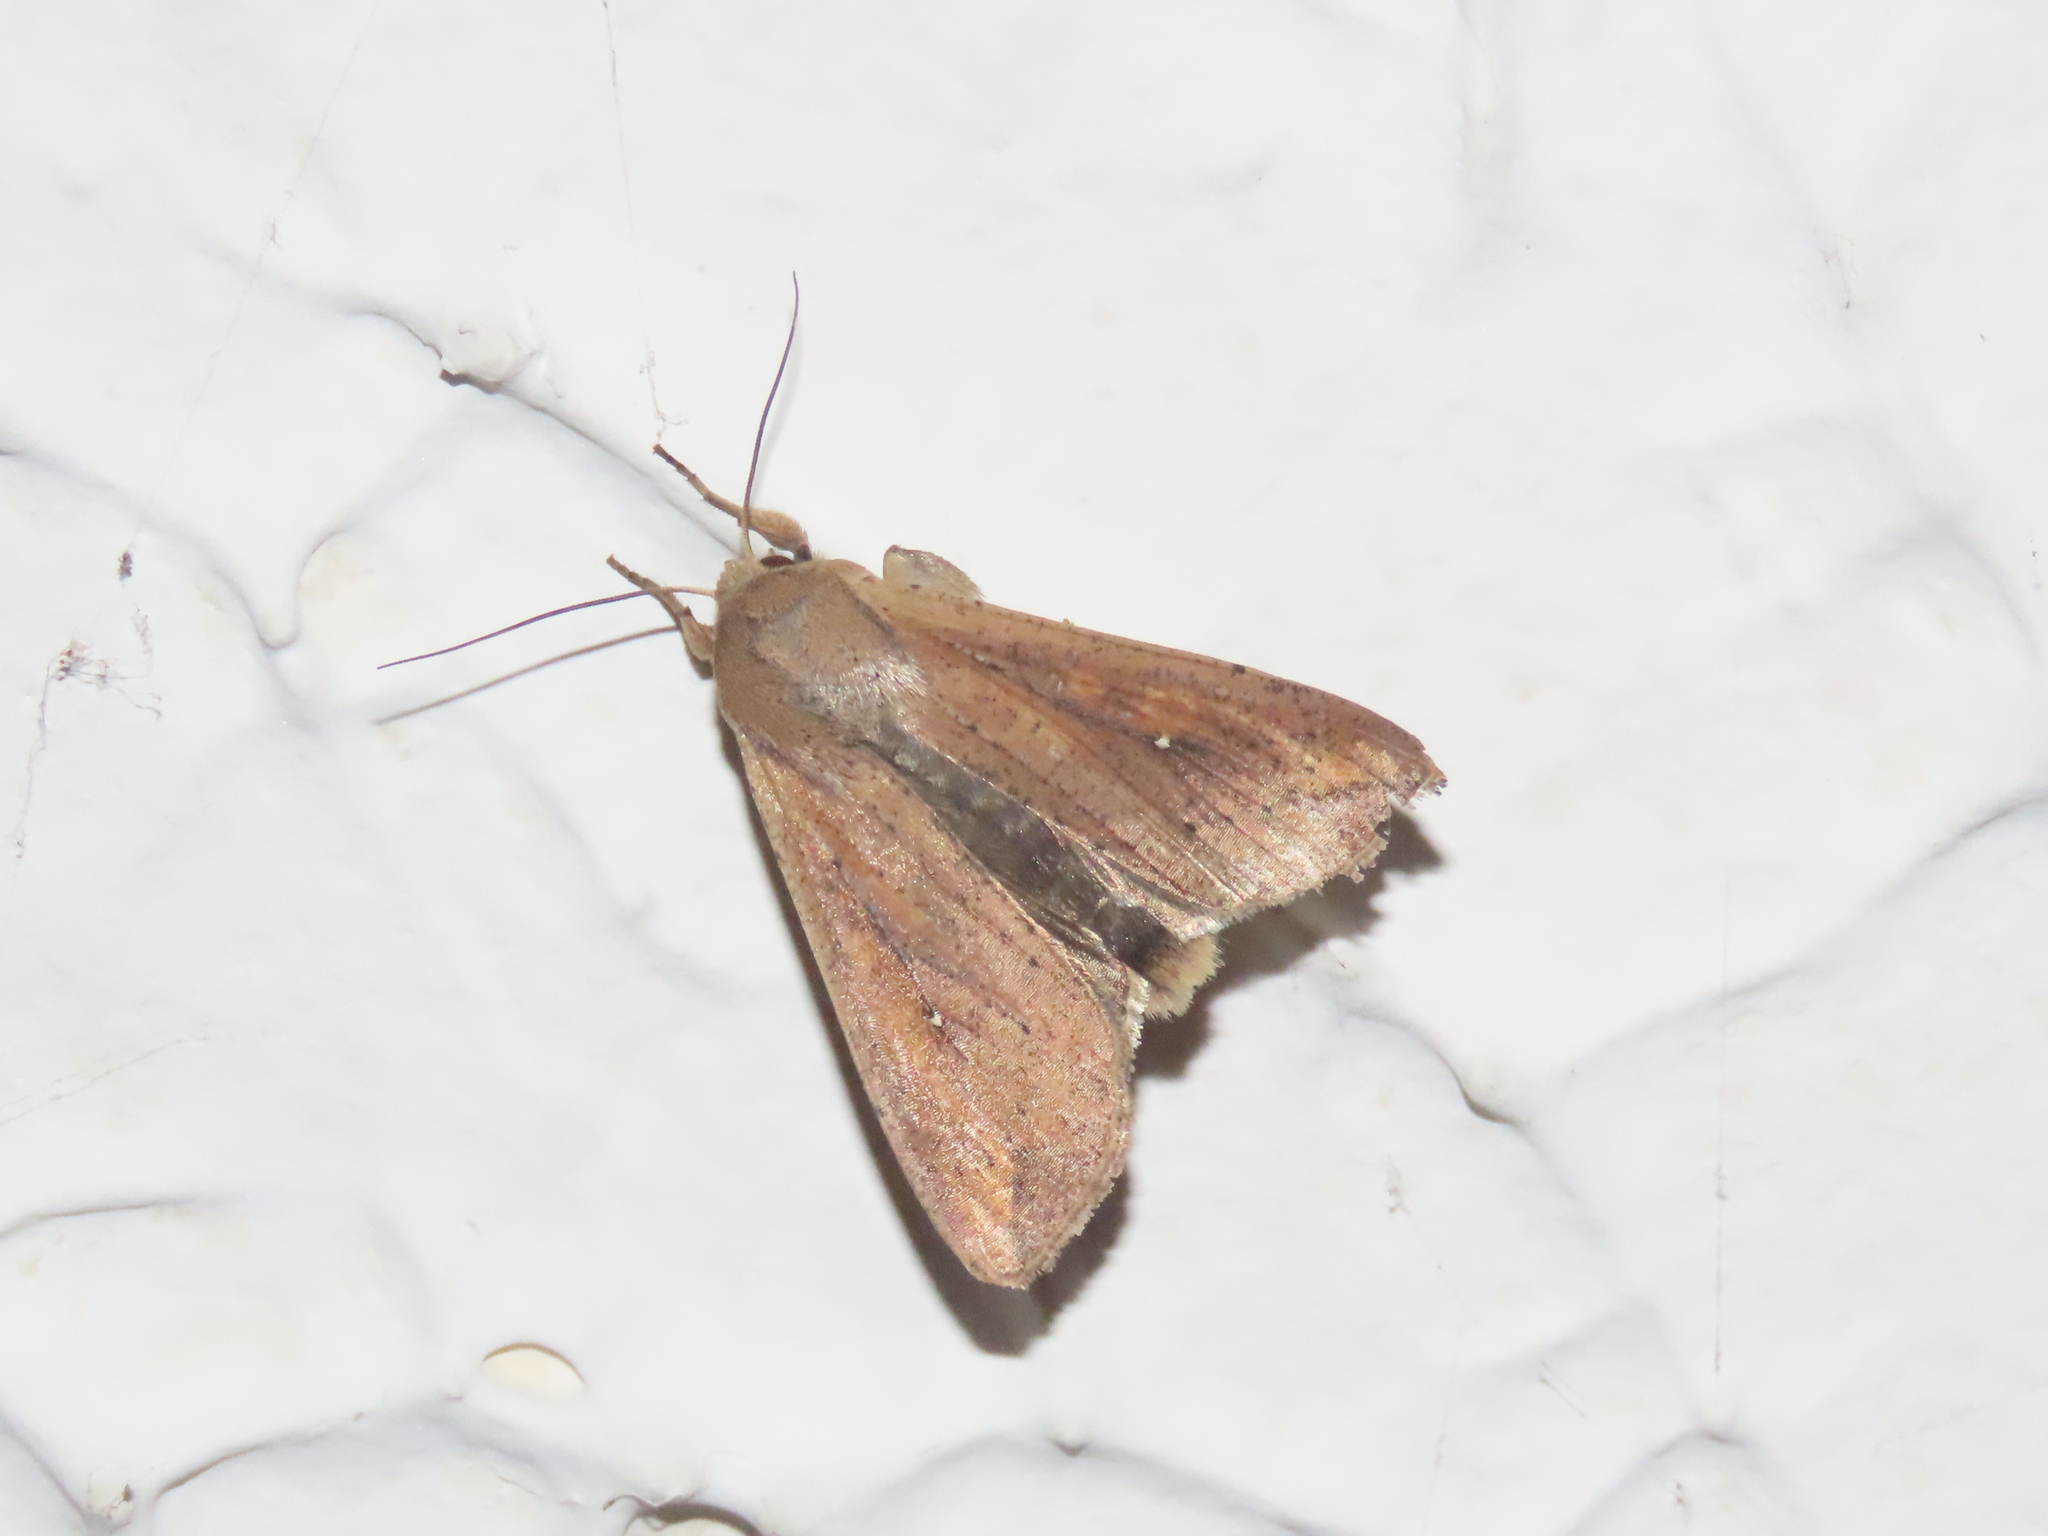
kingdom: Animalia
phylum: Arthropoda
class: Insecta
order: Lepidoptera
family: Noctuidae
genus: Mythimna
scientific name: Mythimna unipuncta
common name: White-speck
